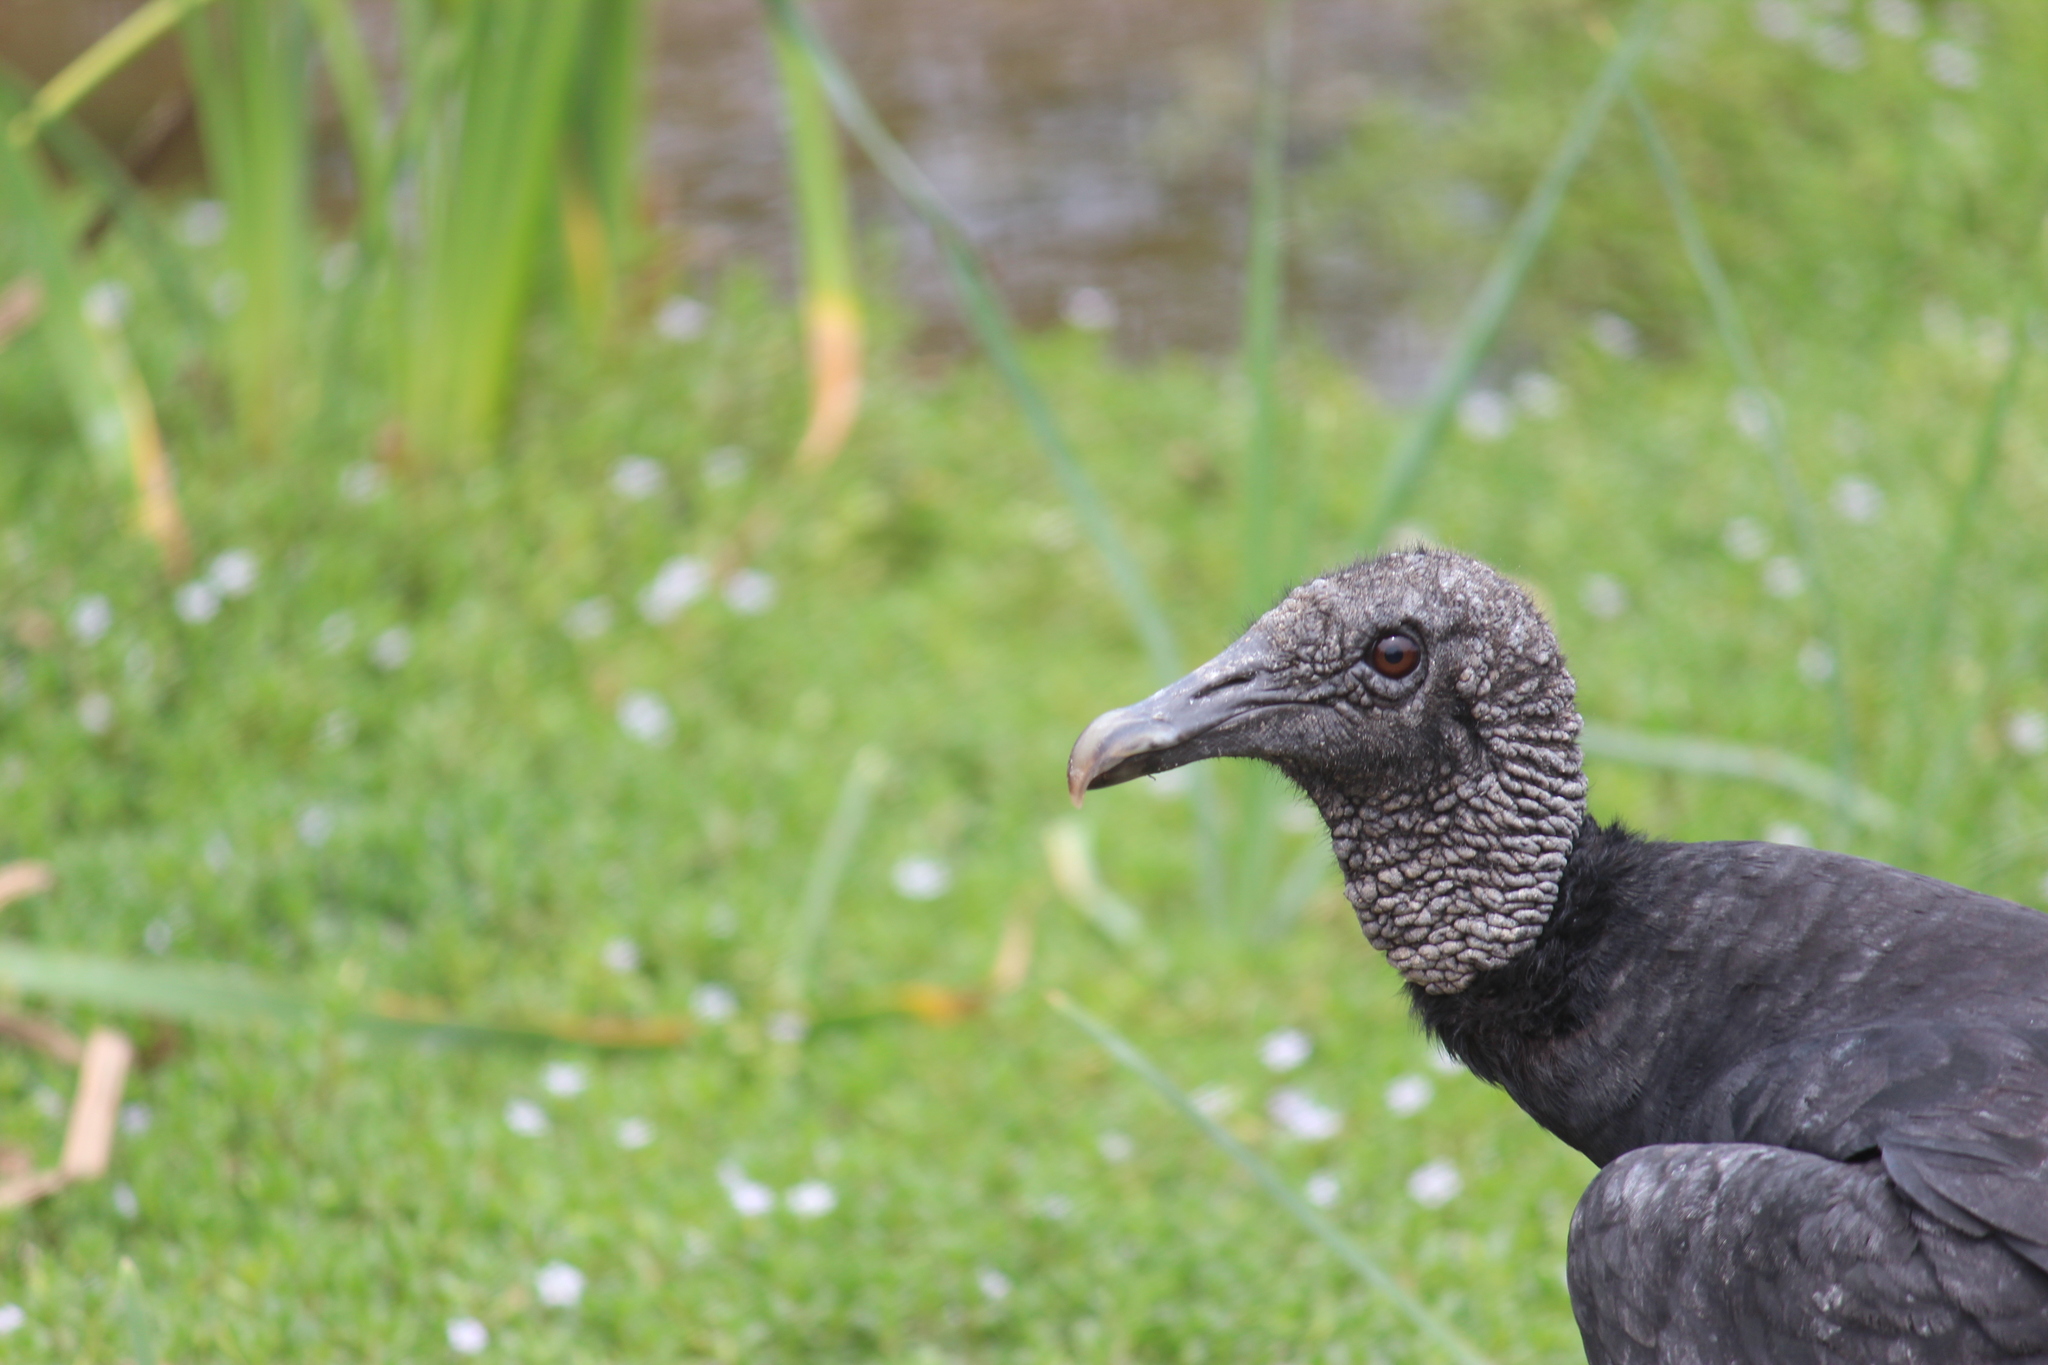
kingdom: Animalia
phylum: Chordata
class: Aves
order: Accipitriformes
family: Cathartidae
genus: Coragyps
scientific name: Coragyps atratus
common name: Black vulture
